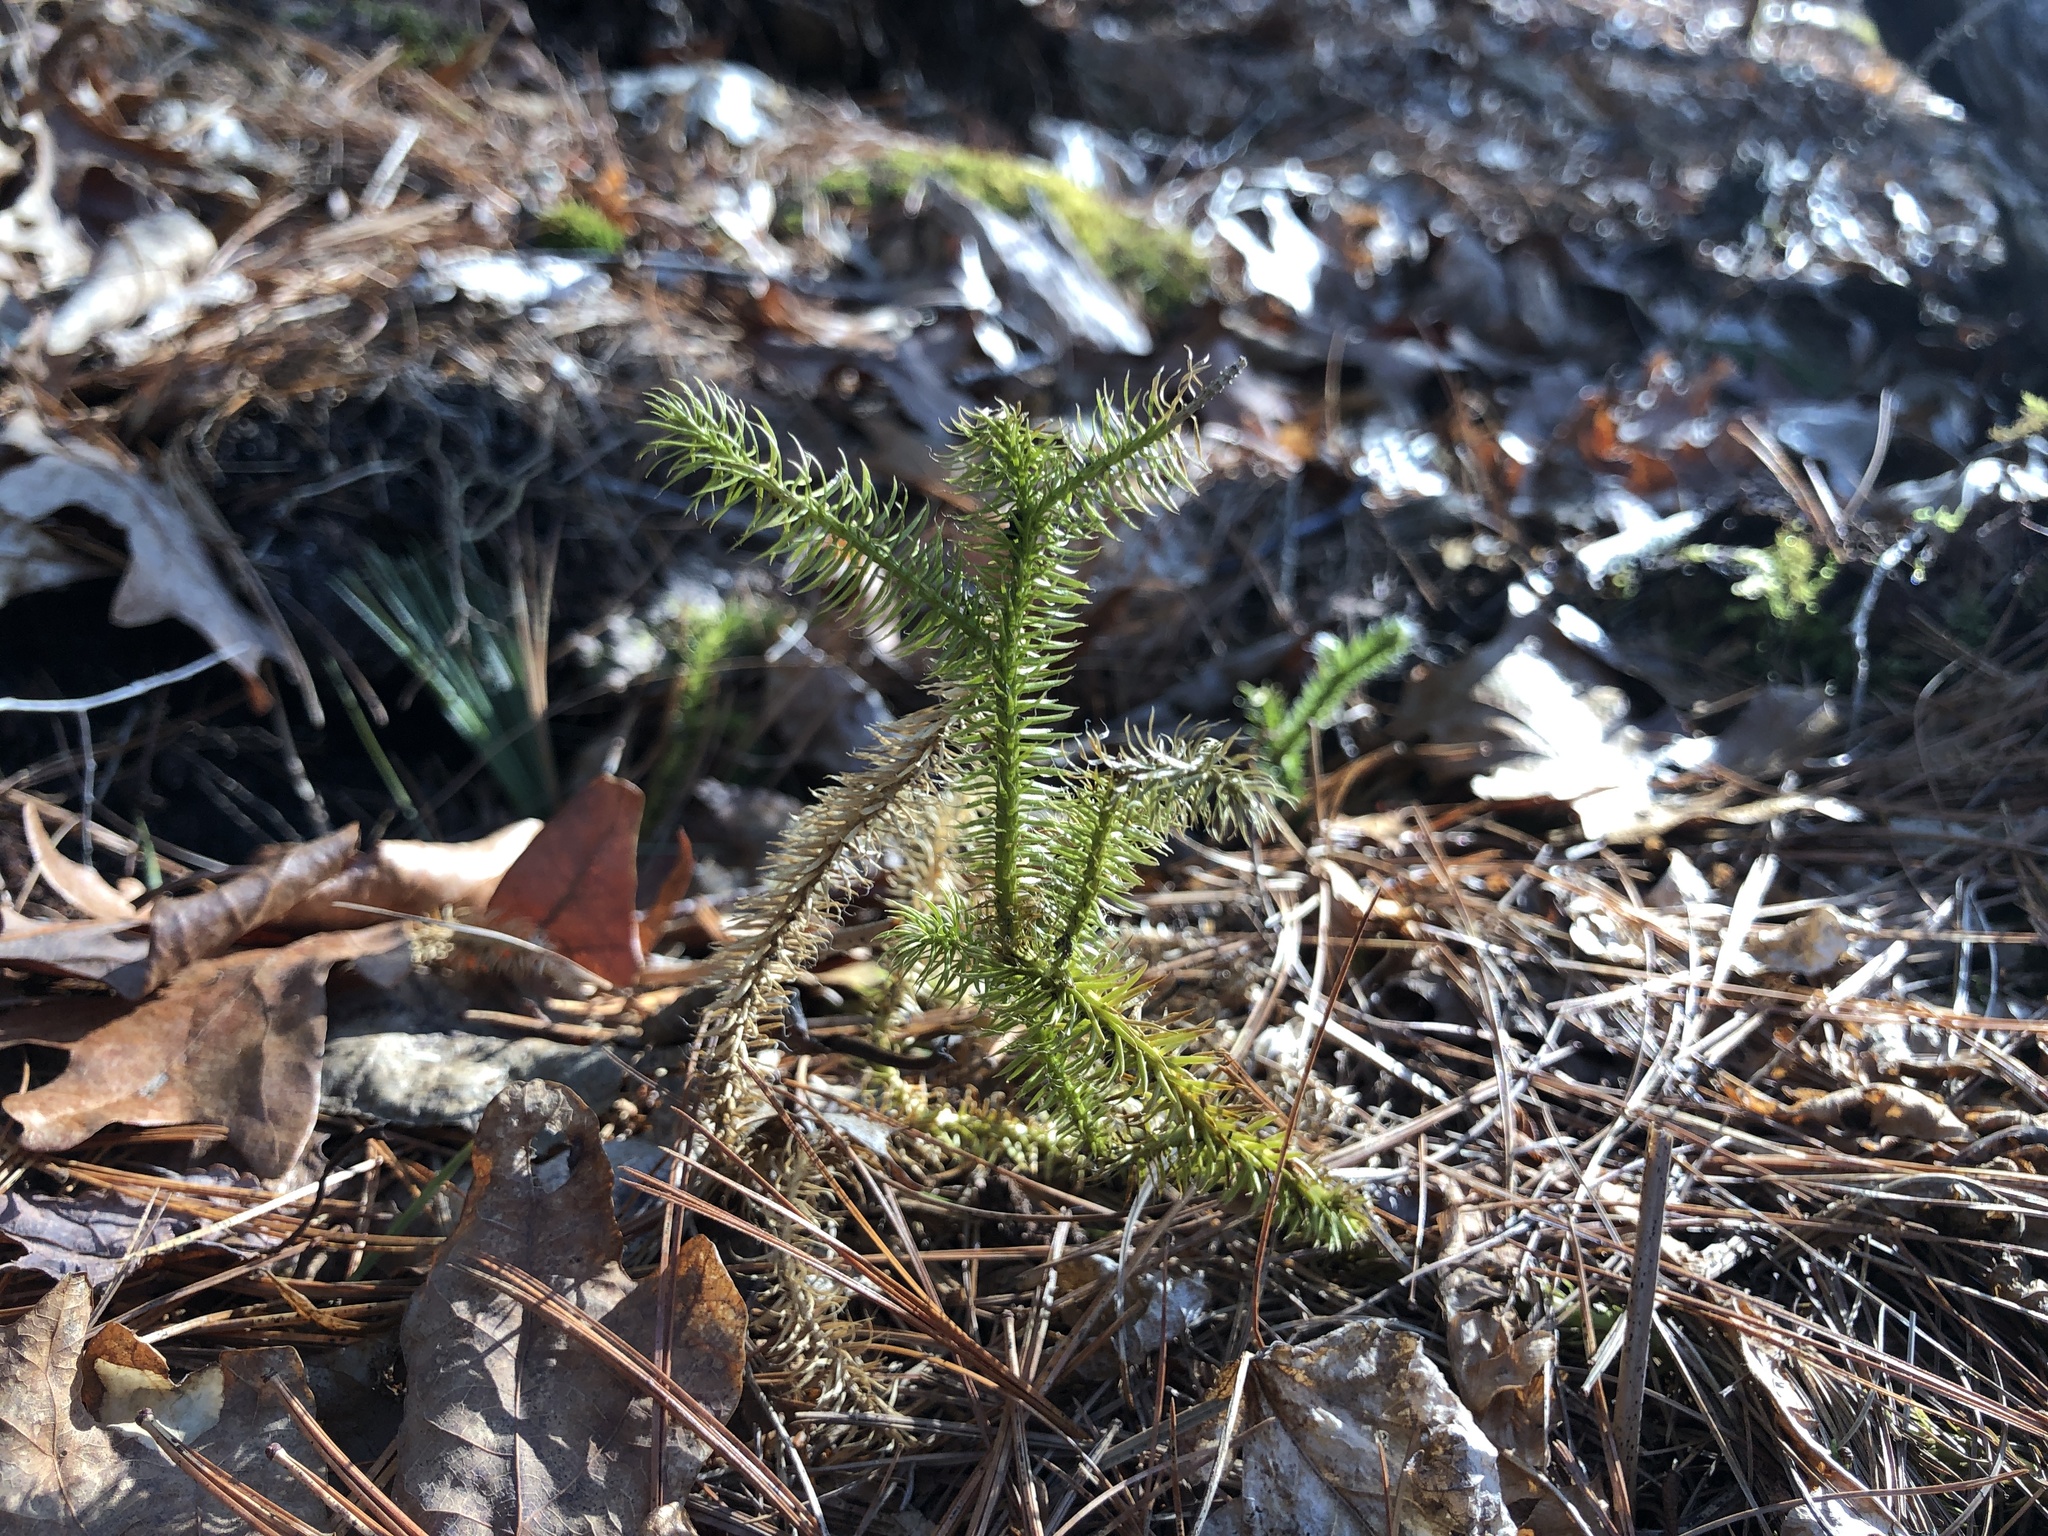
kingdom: Plantae
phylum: Tracheophyta
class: Lycopodiopsida
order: Lycopodiales
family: Lycopodiaceae
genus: Lycopodium
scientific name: Lycopodium clavatum
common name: Stag's-horn clubmoss
